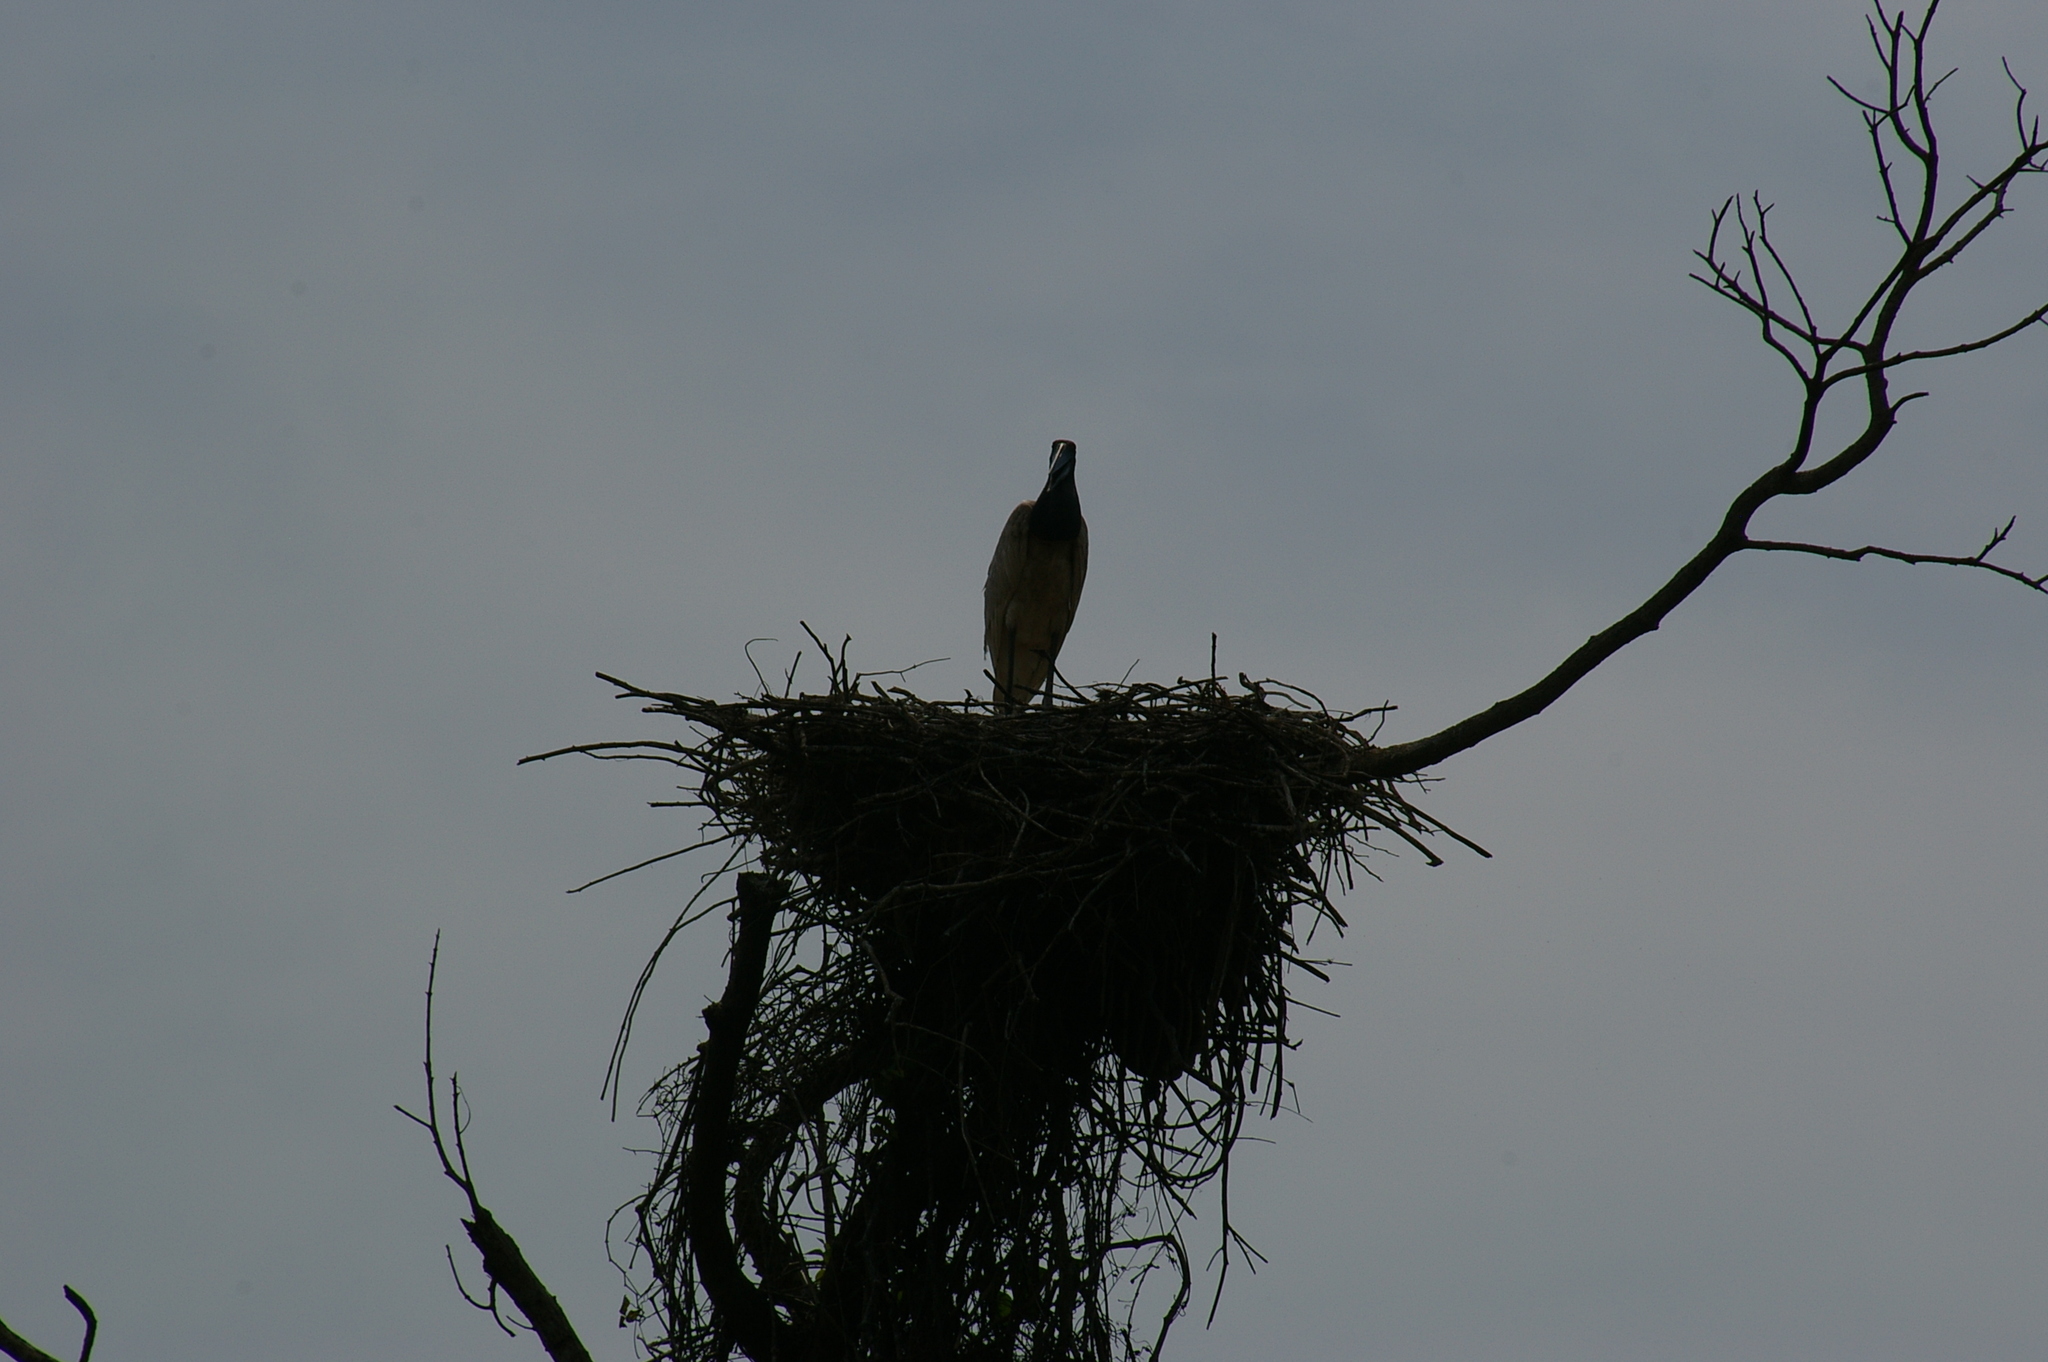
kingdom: Animalia
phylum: Chordata
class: Aves
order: Ciconiiformes
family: Ciconiidae
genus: Jabiru
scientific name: Jabiru mycteria
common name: Jabiru
